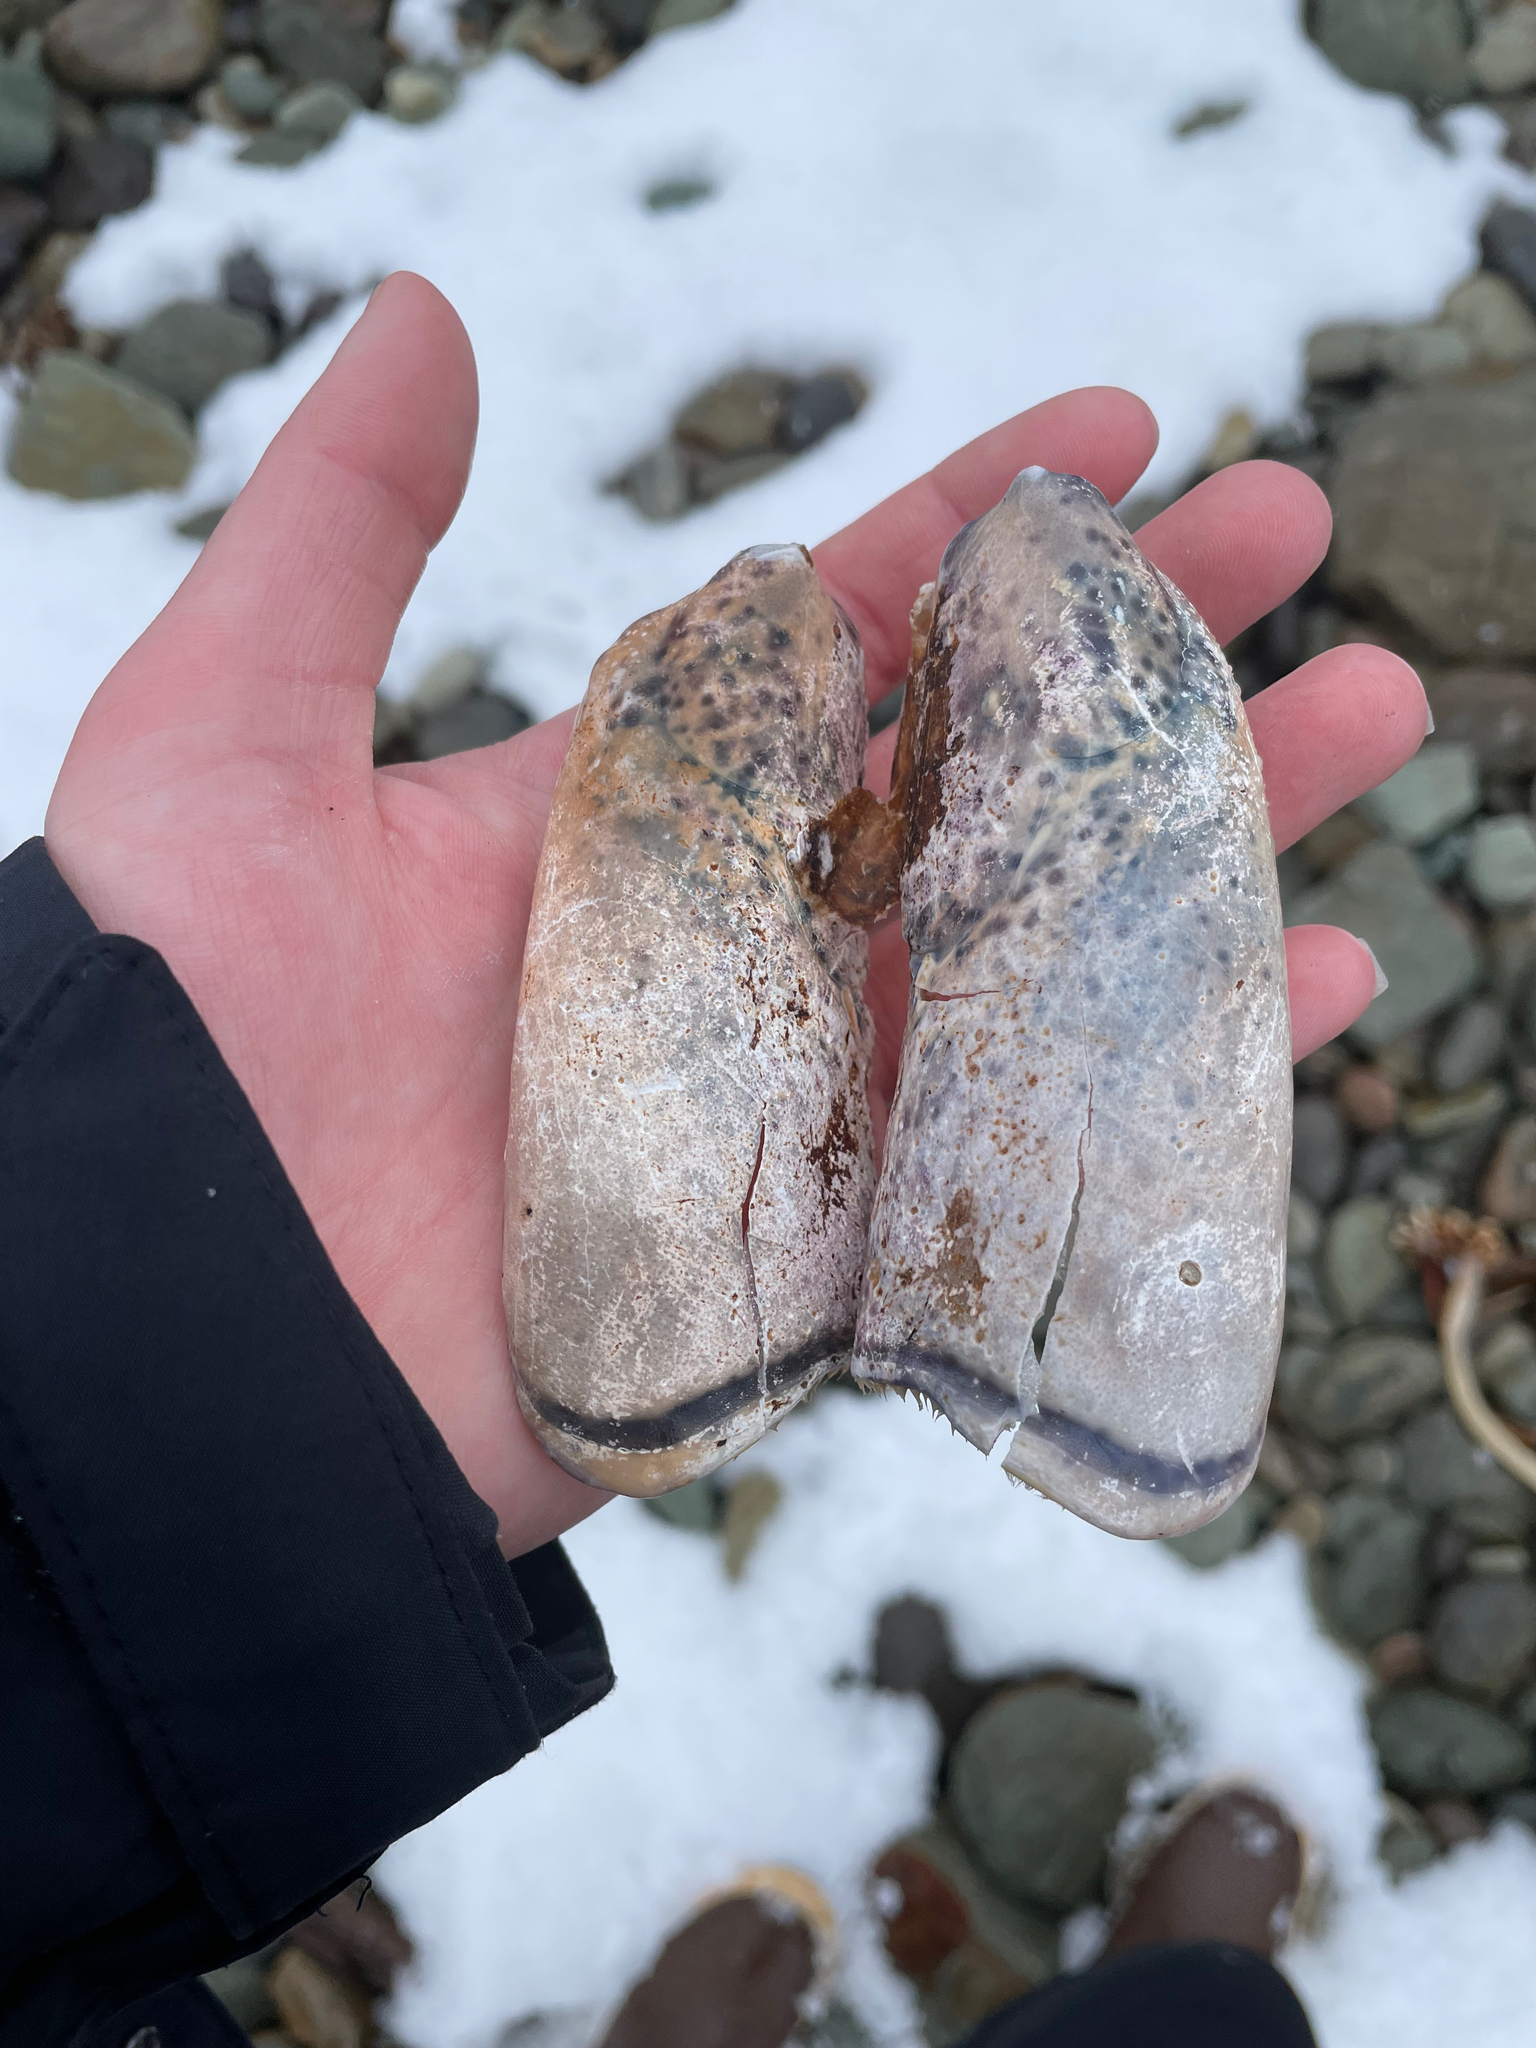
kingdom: Animalia
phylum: Arthropoda
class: Malacostraca
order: Decapoda
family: Nephropidae
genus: Homarus
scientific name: Homarus americanus
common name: American lobster
